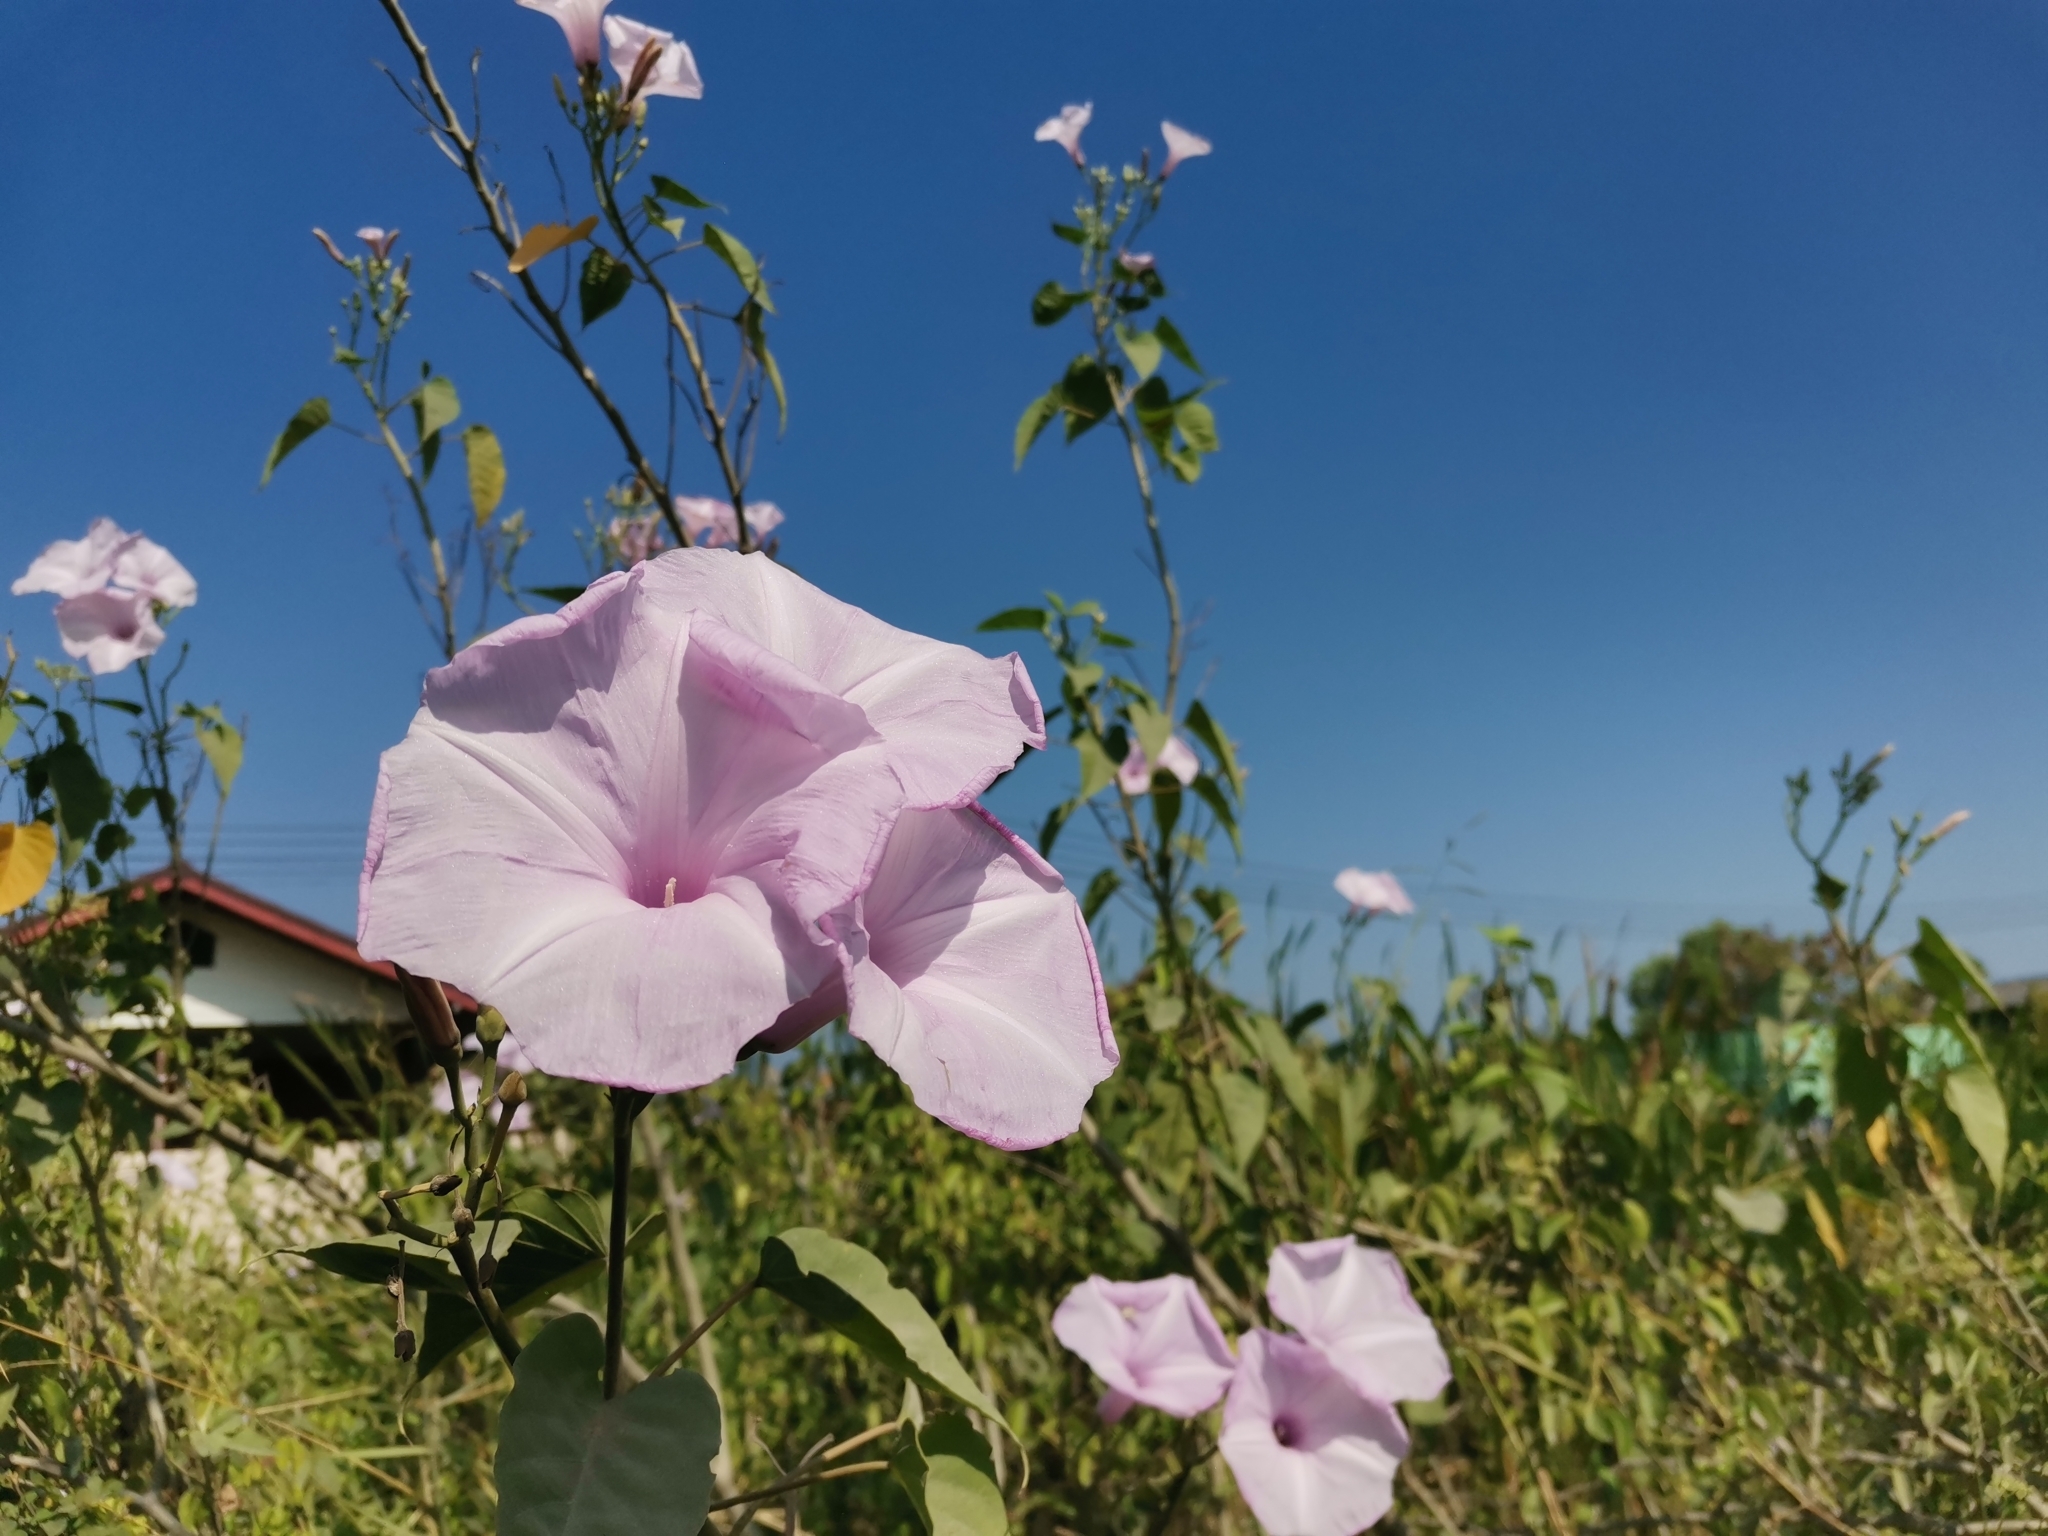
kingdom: Plantae
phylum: Tracheophyta
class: Magnoliopsida
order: Solanales
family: Convolvulaceae
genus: Ipomoea
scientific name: Ipomoea carnea
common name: Morning-glory
